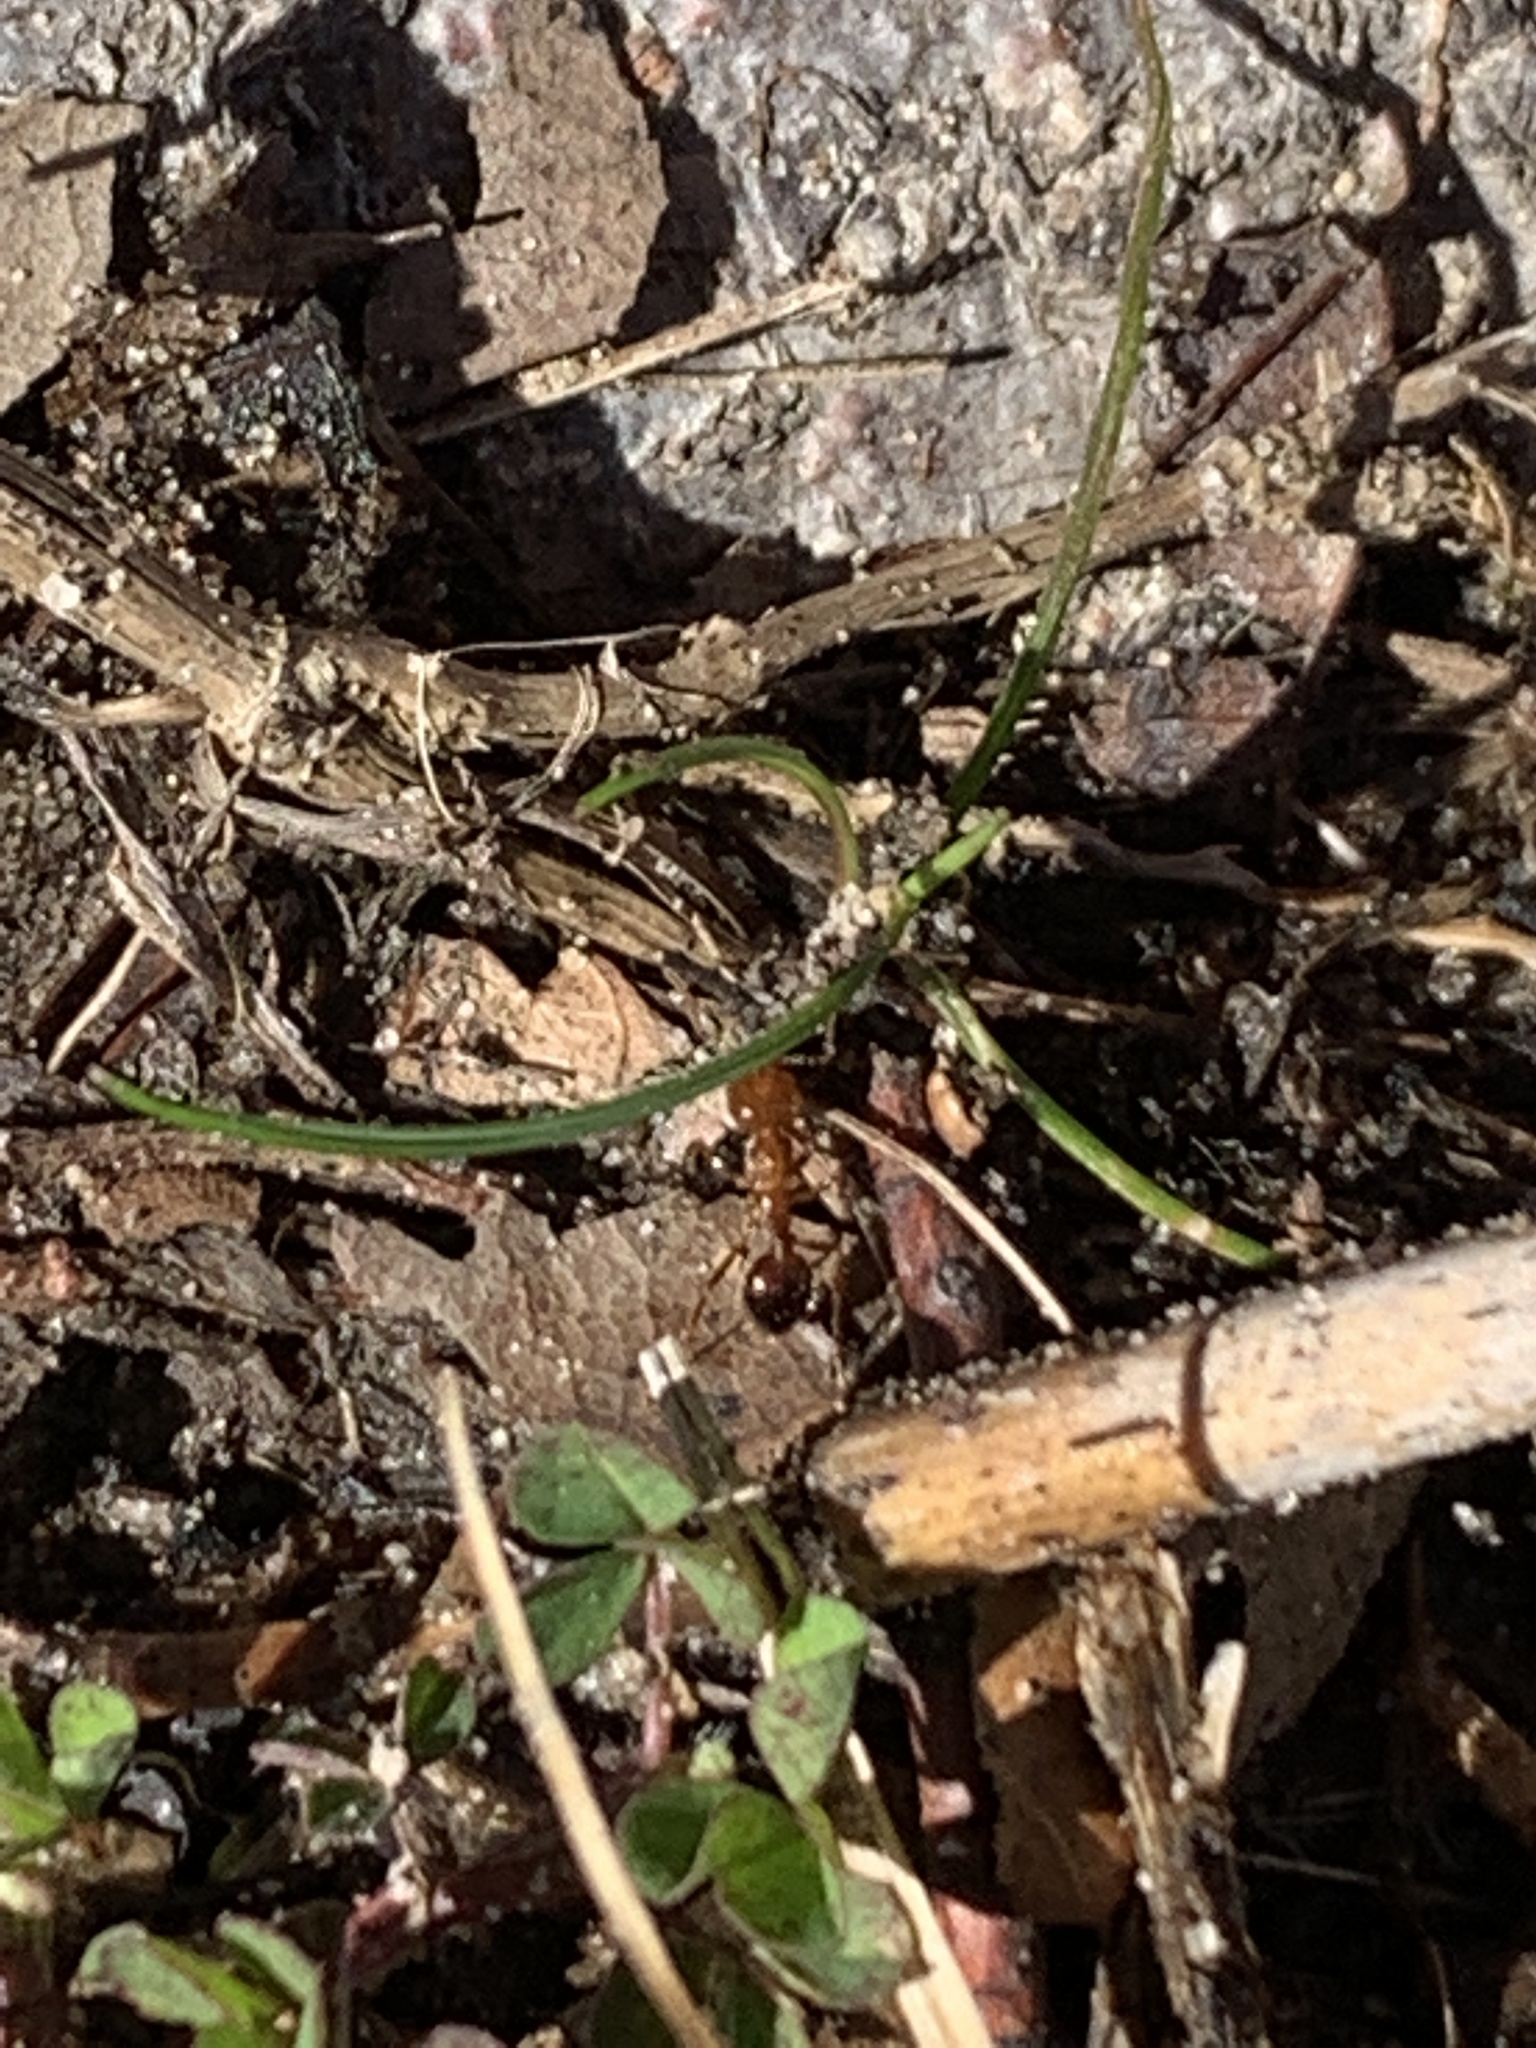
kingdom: Animalia
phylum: Arthropoda
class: Insecta
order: Hymenoptera
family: Formicidae
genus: Solenopsis
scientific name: Solenopsis invicta
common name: Red imported fire ant
